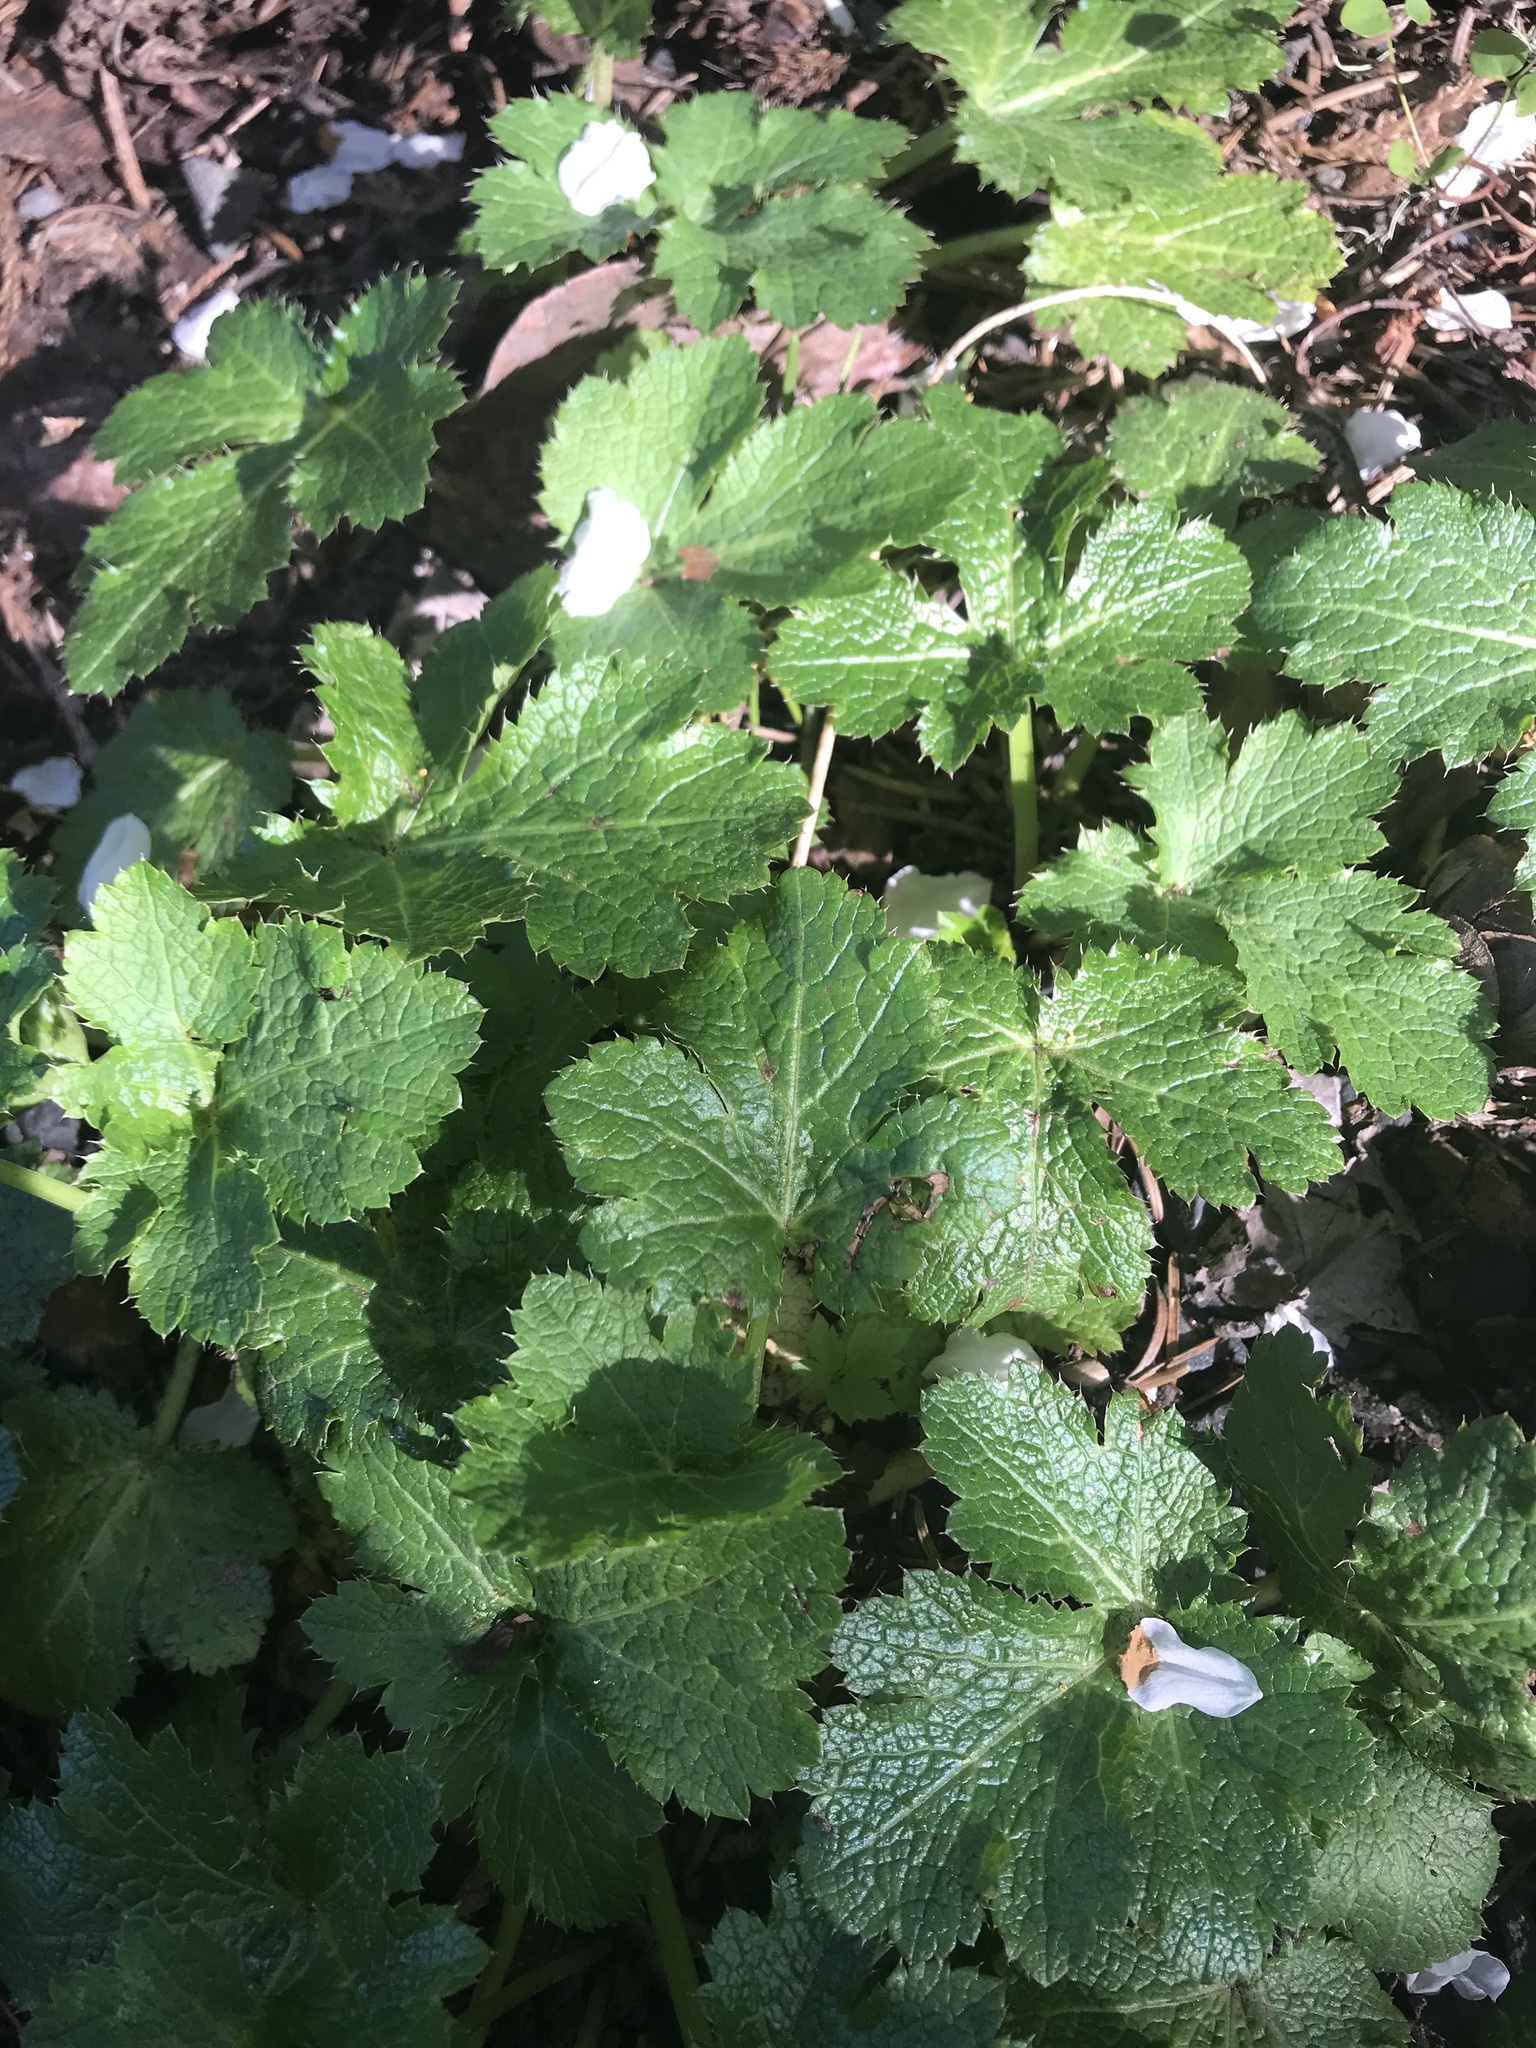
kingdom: Plantae
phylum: Tracheophyta
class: Magnoliopsida
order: Apiales
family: Apiaceae
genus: Sanicula
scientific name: Sanicula crassicaulis
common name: Western snakeroot
